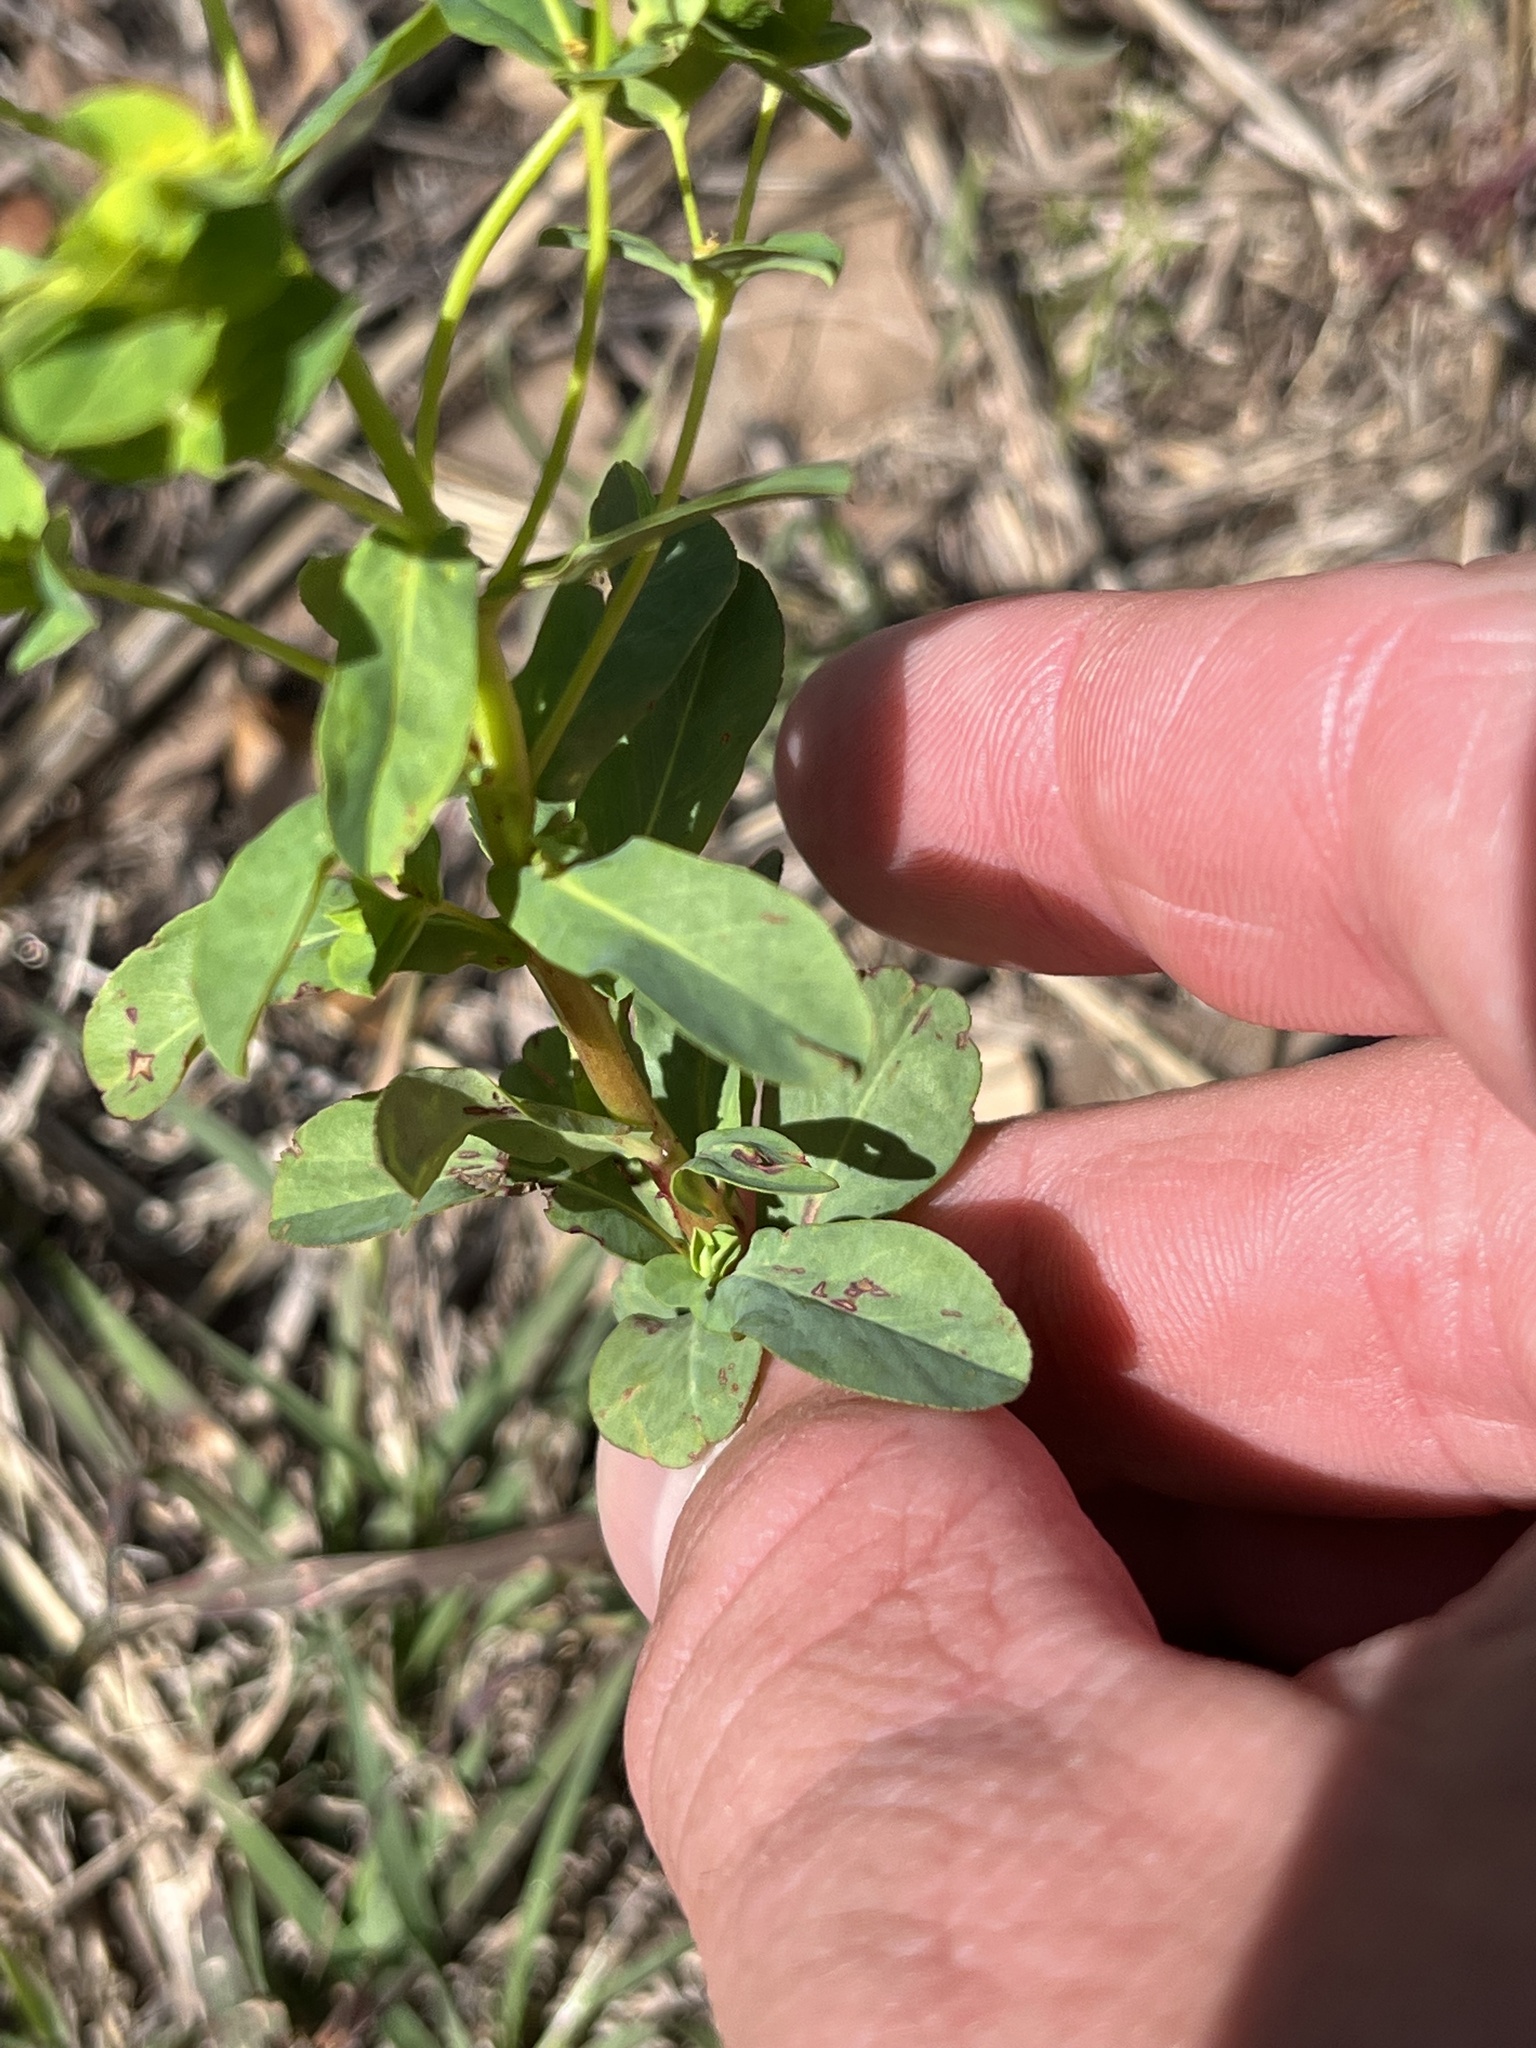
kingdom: Plantae
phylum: Tracheophyta
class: Magnoliopsida
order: Malpighiales
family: Euphorbiaceae
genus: Euphorbia
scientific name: Euphorbia spathulata
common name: Blunt spurge
